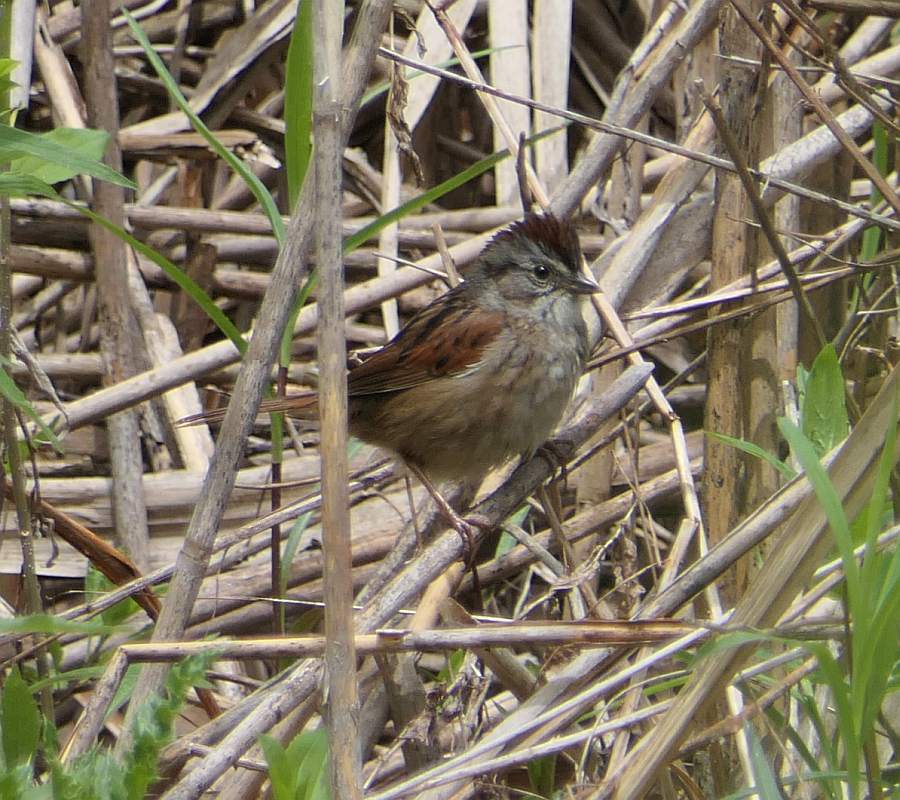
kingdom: Animalia
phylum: Chordata
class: Aves
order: Passeriformes
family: Passerellidae
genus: Melospiza
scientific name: Melospiza georgiana
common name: Swamp sparrow
